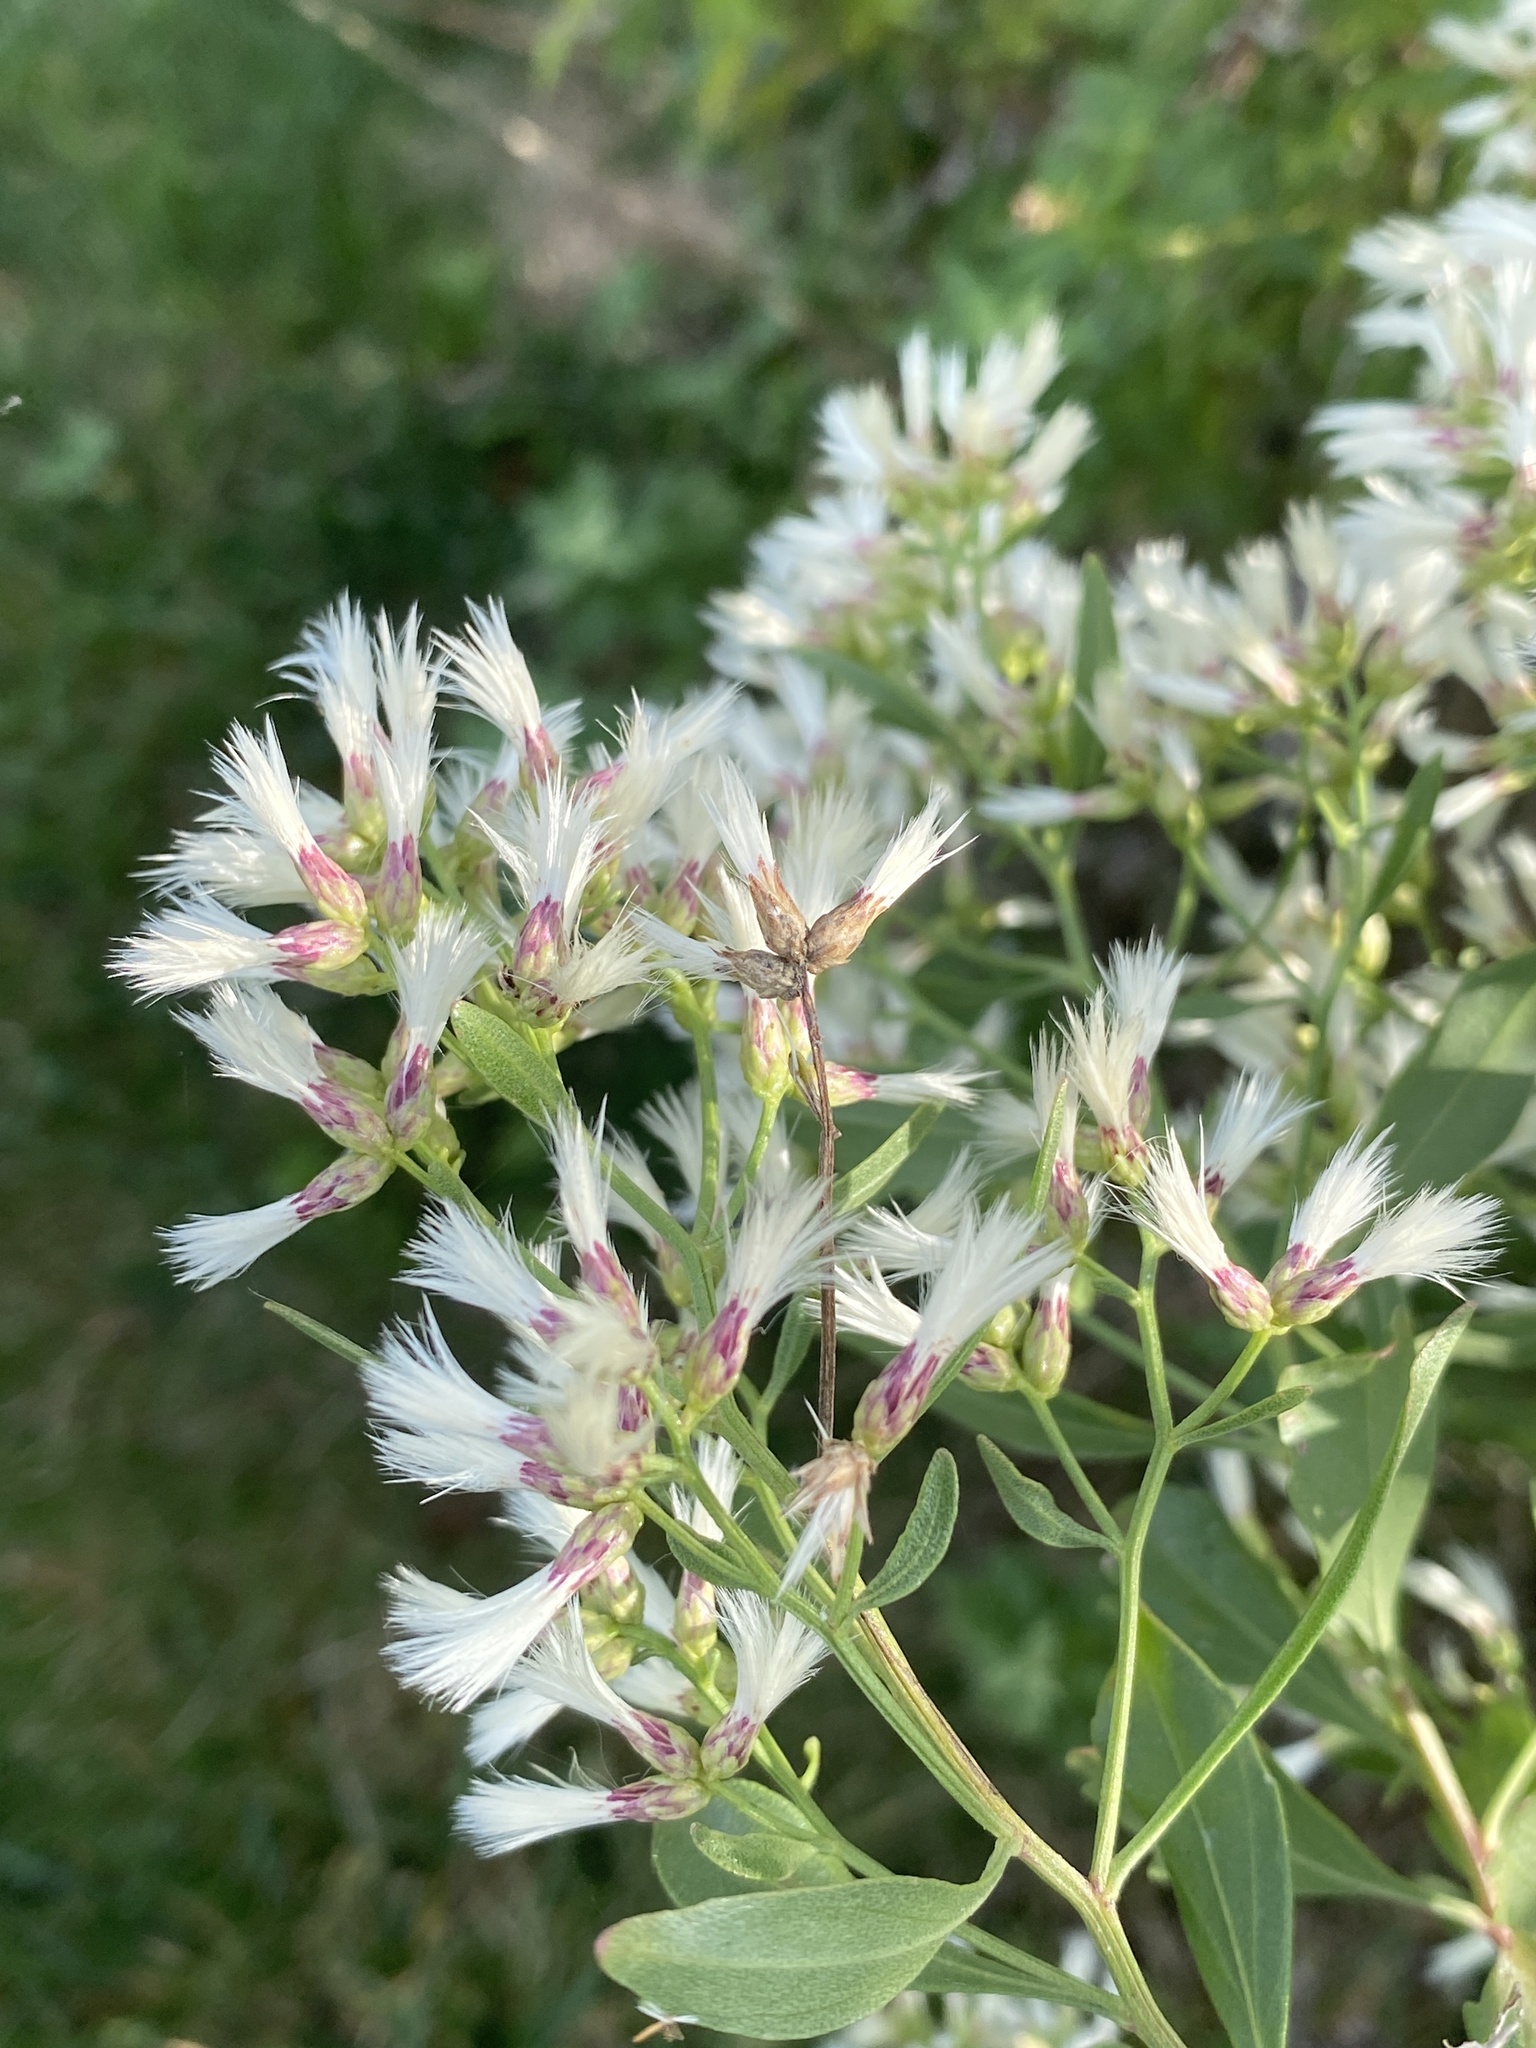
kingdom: Plantae
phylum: Tracheophyta
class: Magnoliopsida
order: Asterales
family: Asteraceae
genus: Baccharis
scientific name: Baccharis halimifolia
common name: Eastern baccharis
